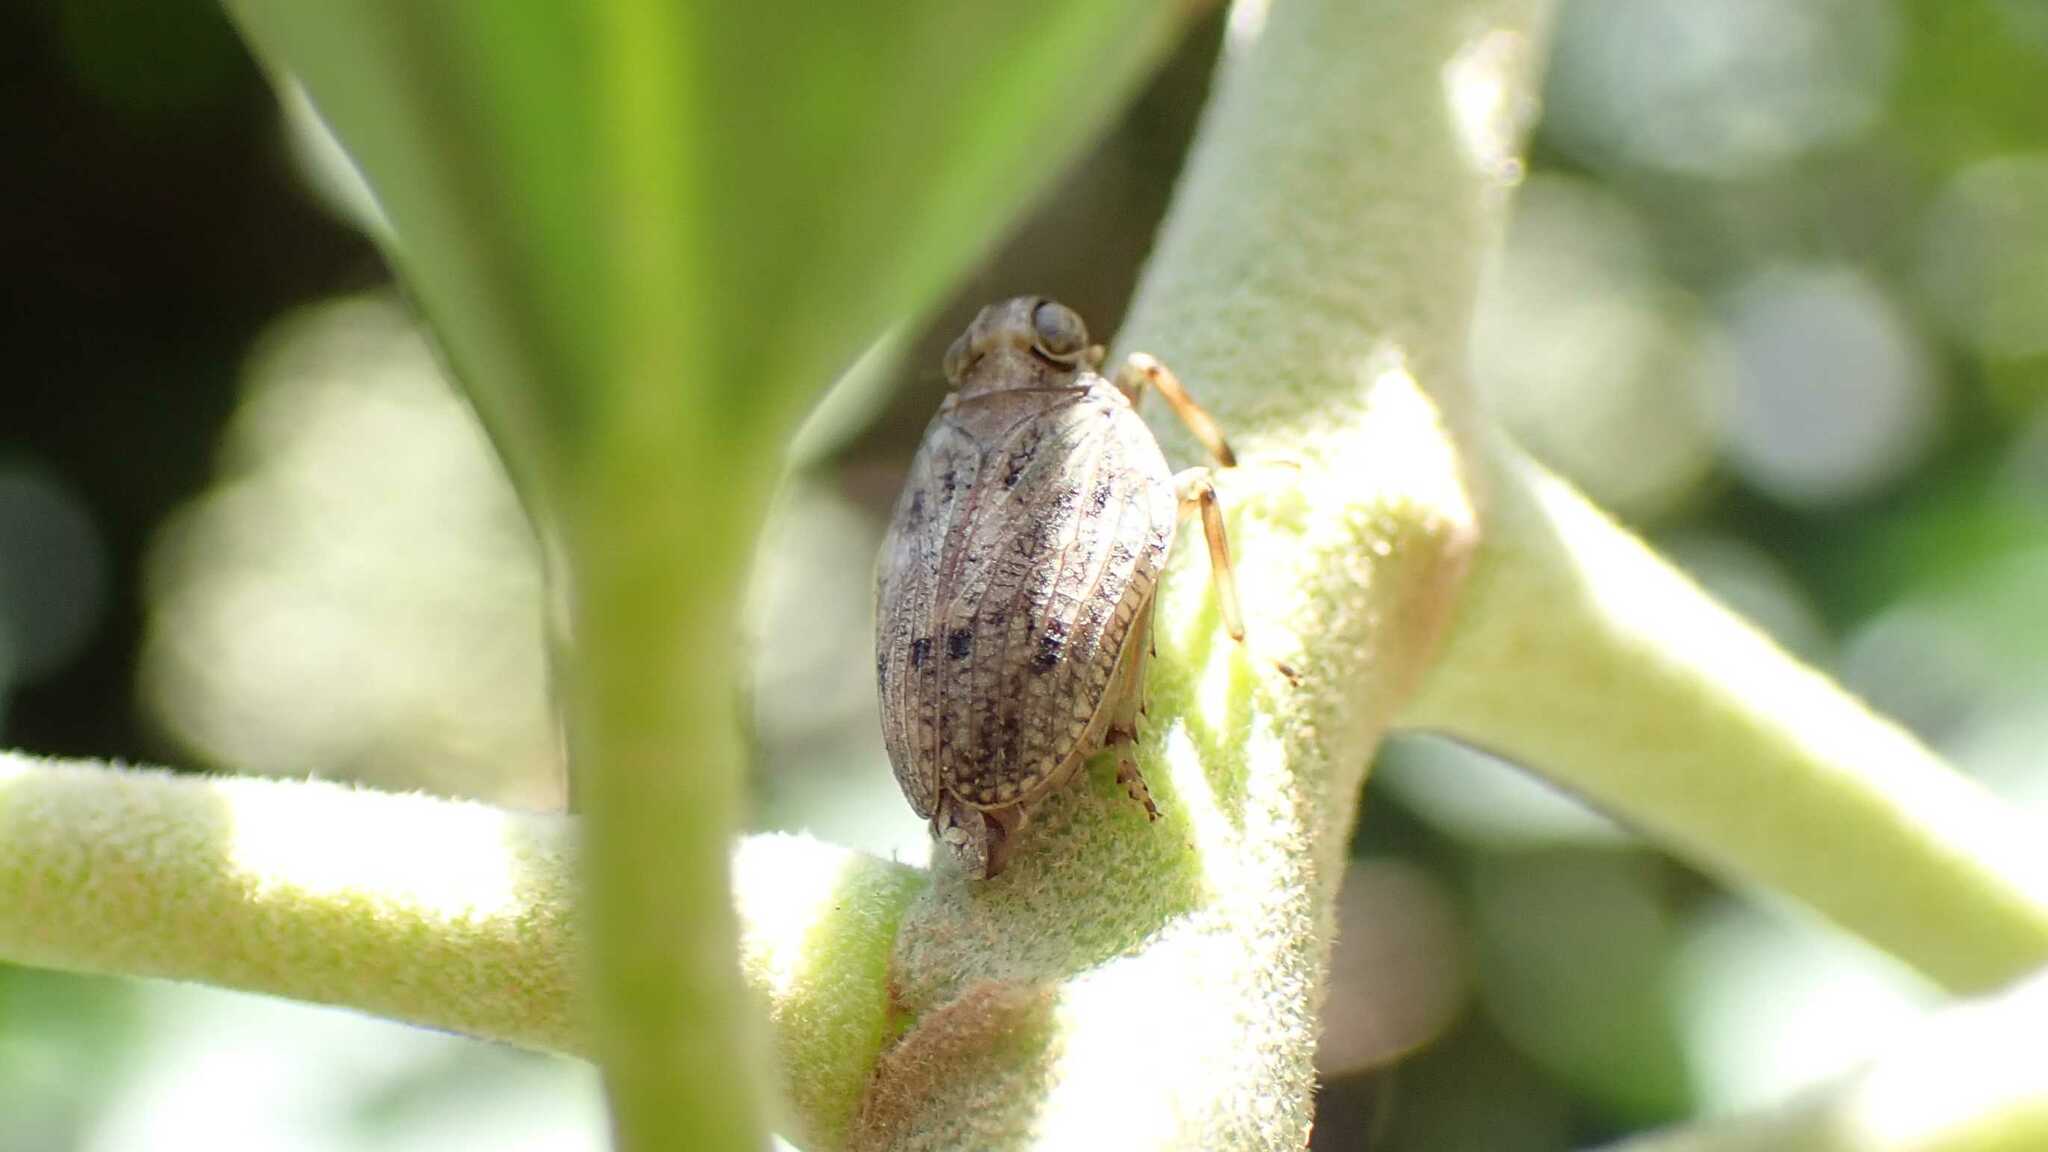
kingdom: Animalia
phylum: Arthropoda
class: Insecta
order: Hemiptera
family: Issidae
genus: Issus
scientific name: Issus coleoptratus
